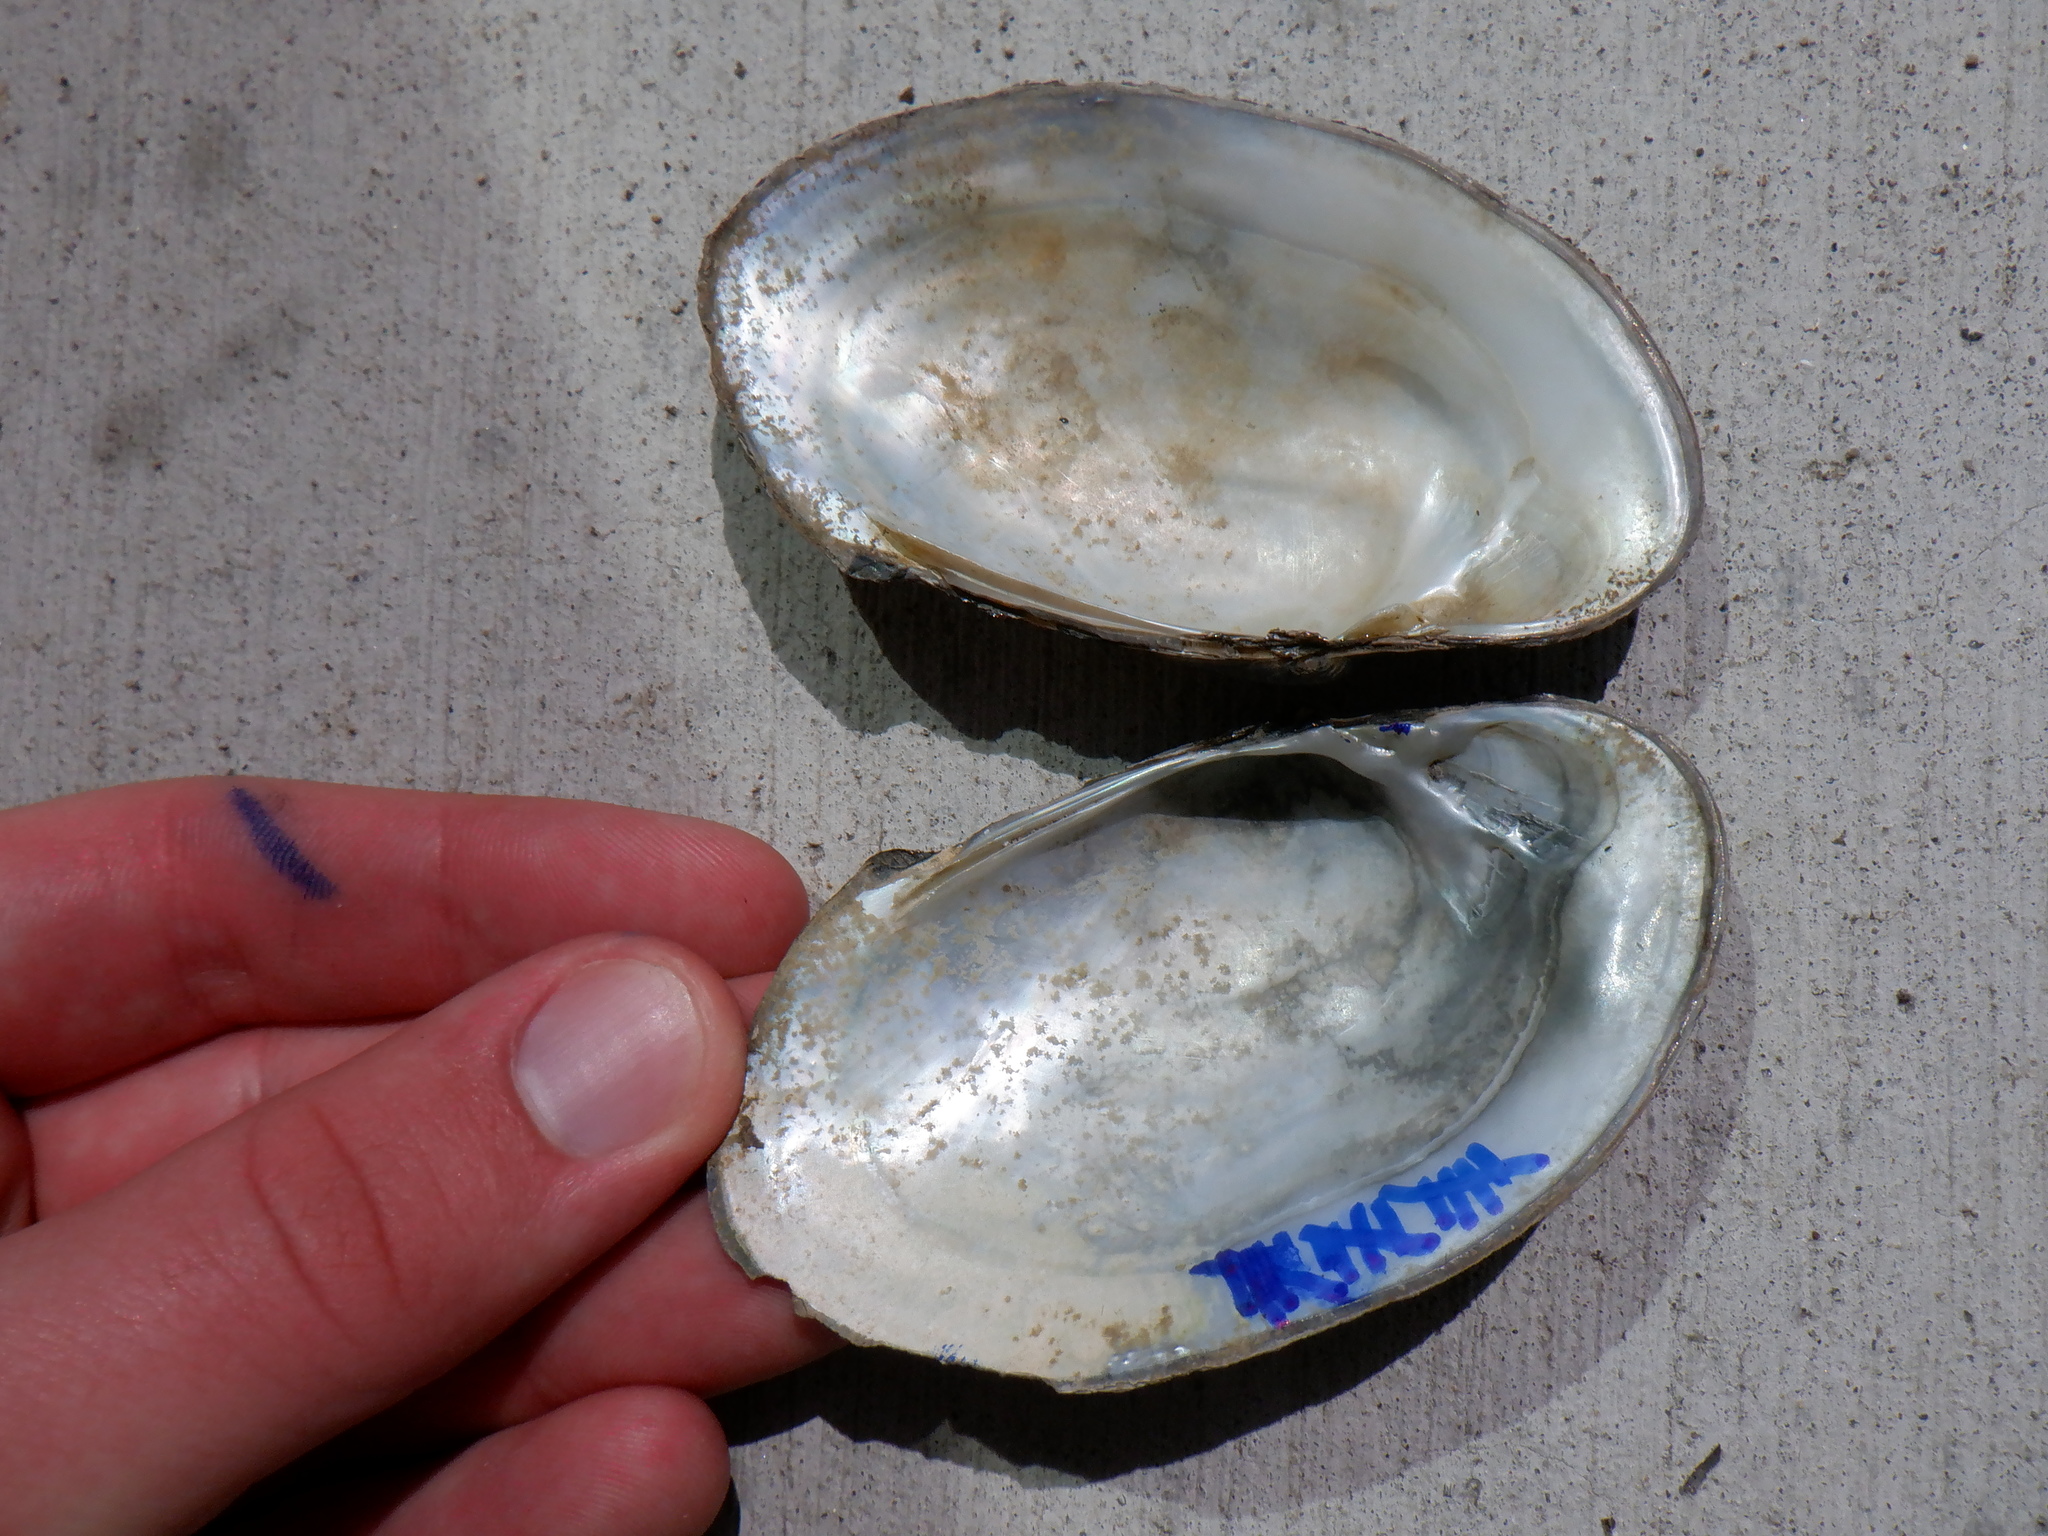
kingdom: Animalia
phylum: Mollusca
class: Bivalvia
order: Unionida
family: Unionidae
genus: Lampsilis
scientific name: Lampsilis siliquoidea
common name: Fatmucket
